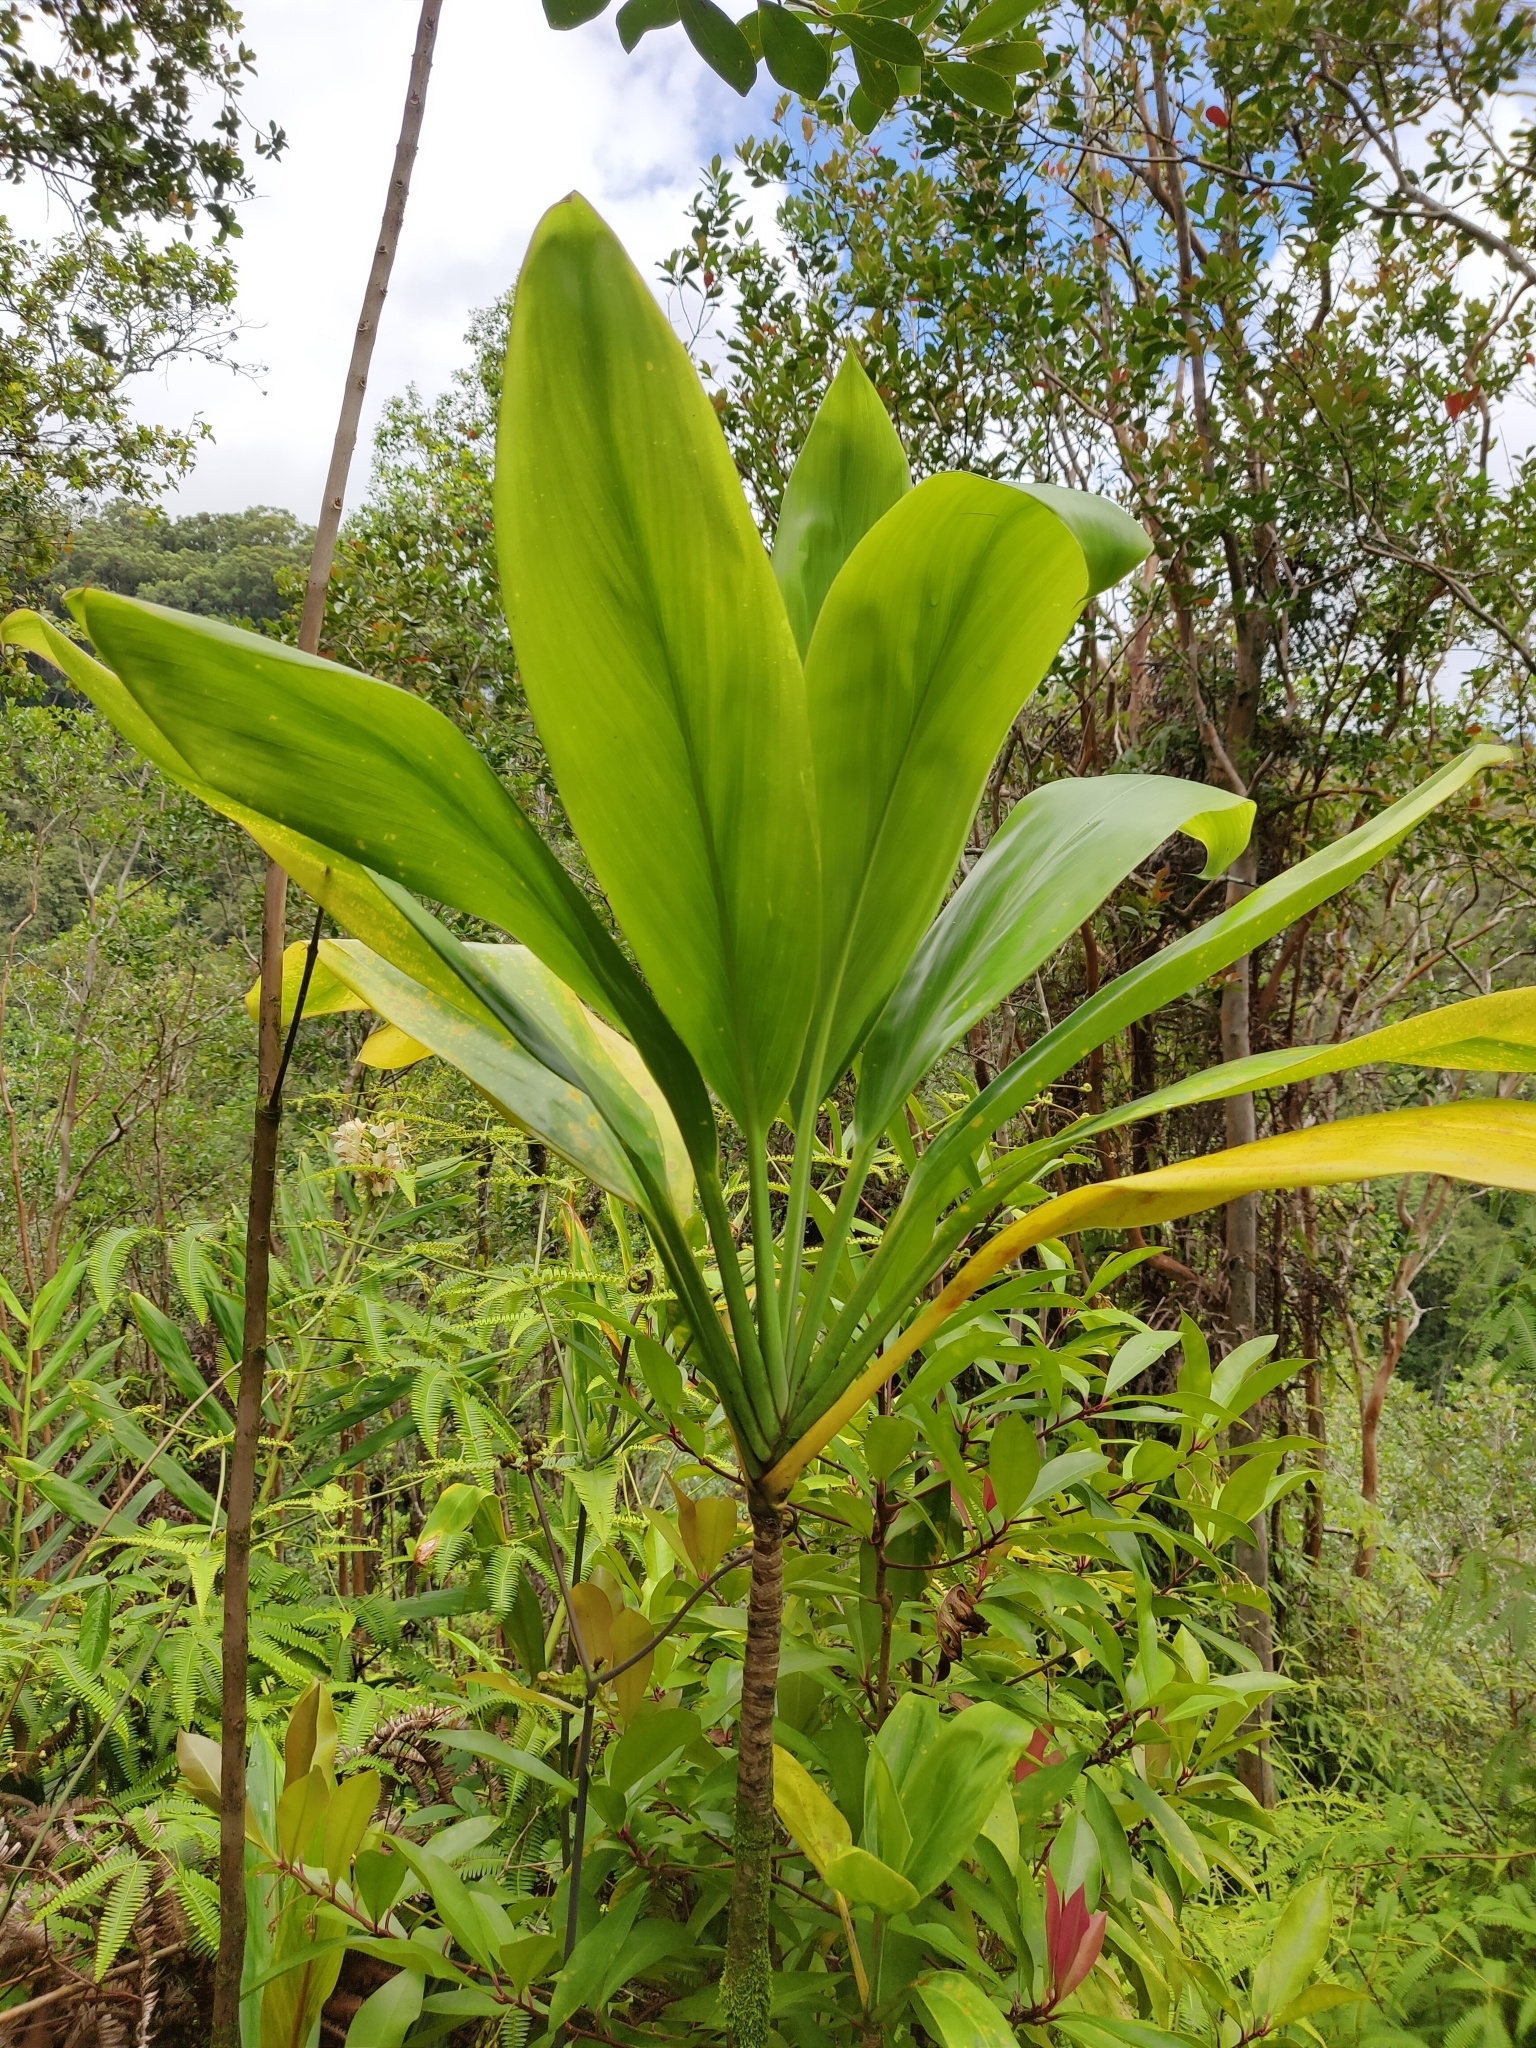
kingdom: Plantae
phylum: Tracheophyta
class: Liliopsida
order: Asparagales
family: Asparagaceae
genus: Cordyline
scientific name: Cordyline fruticosa
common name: Good-luck-plant
